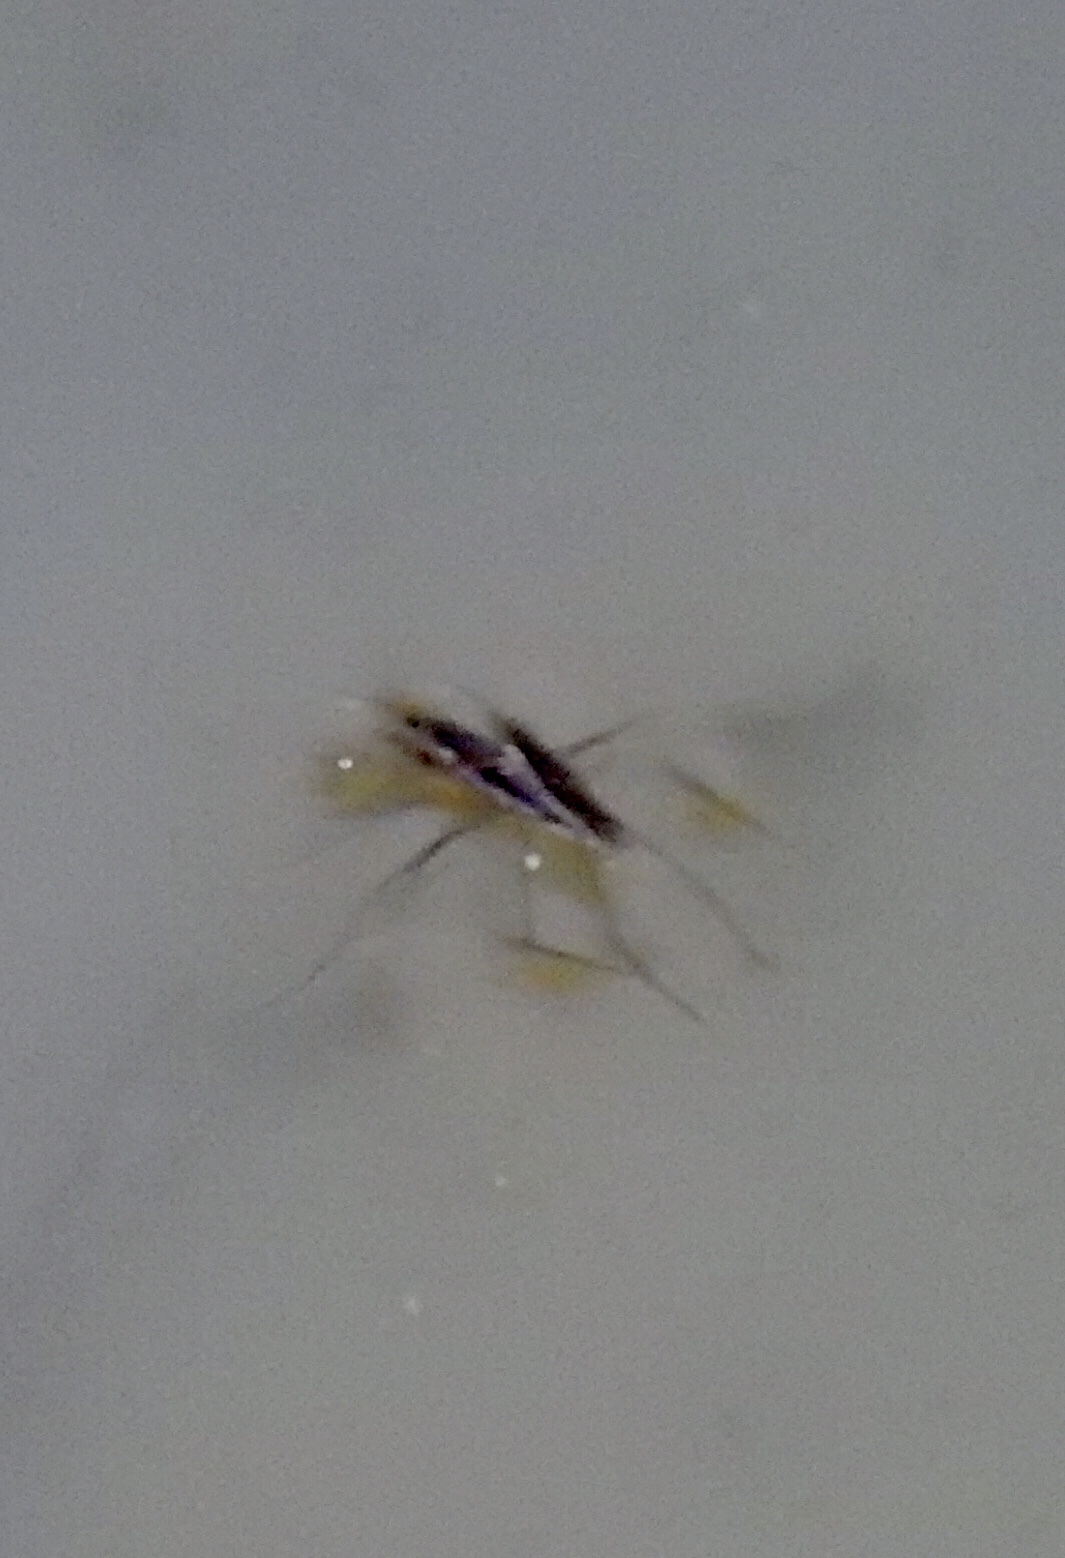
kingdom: Animalia
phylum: Arthropoda
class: Insecta
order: Hemiptera
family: Gerridae
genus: Aquarius
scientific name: Aquarius remigis
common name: Common water strider
